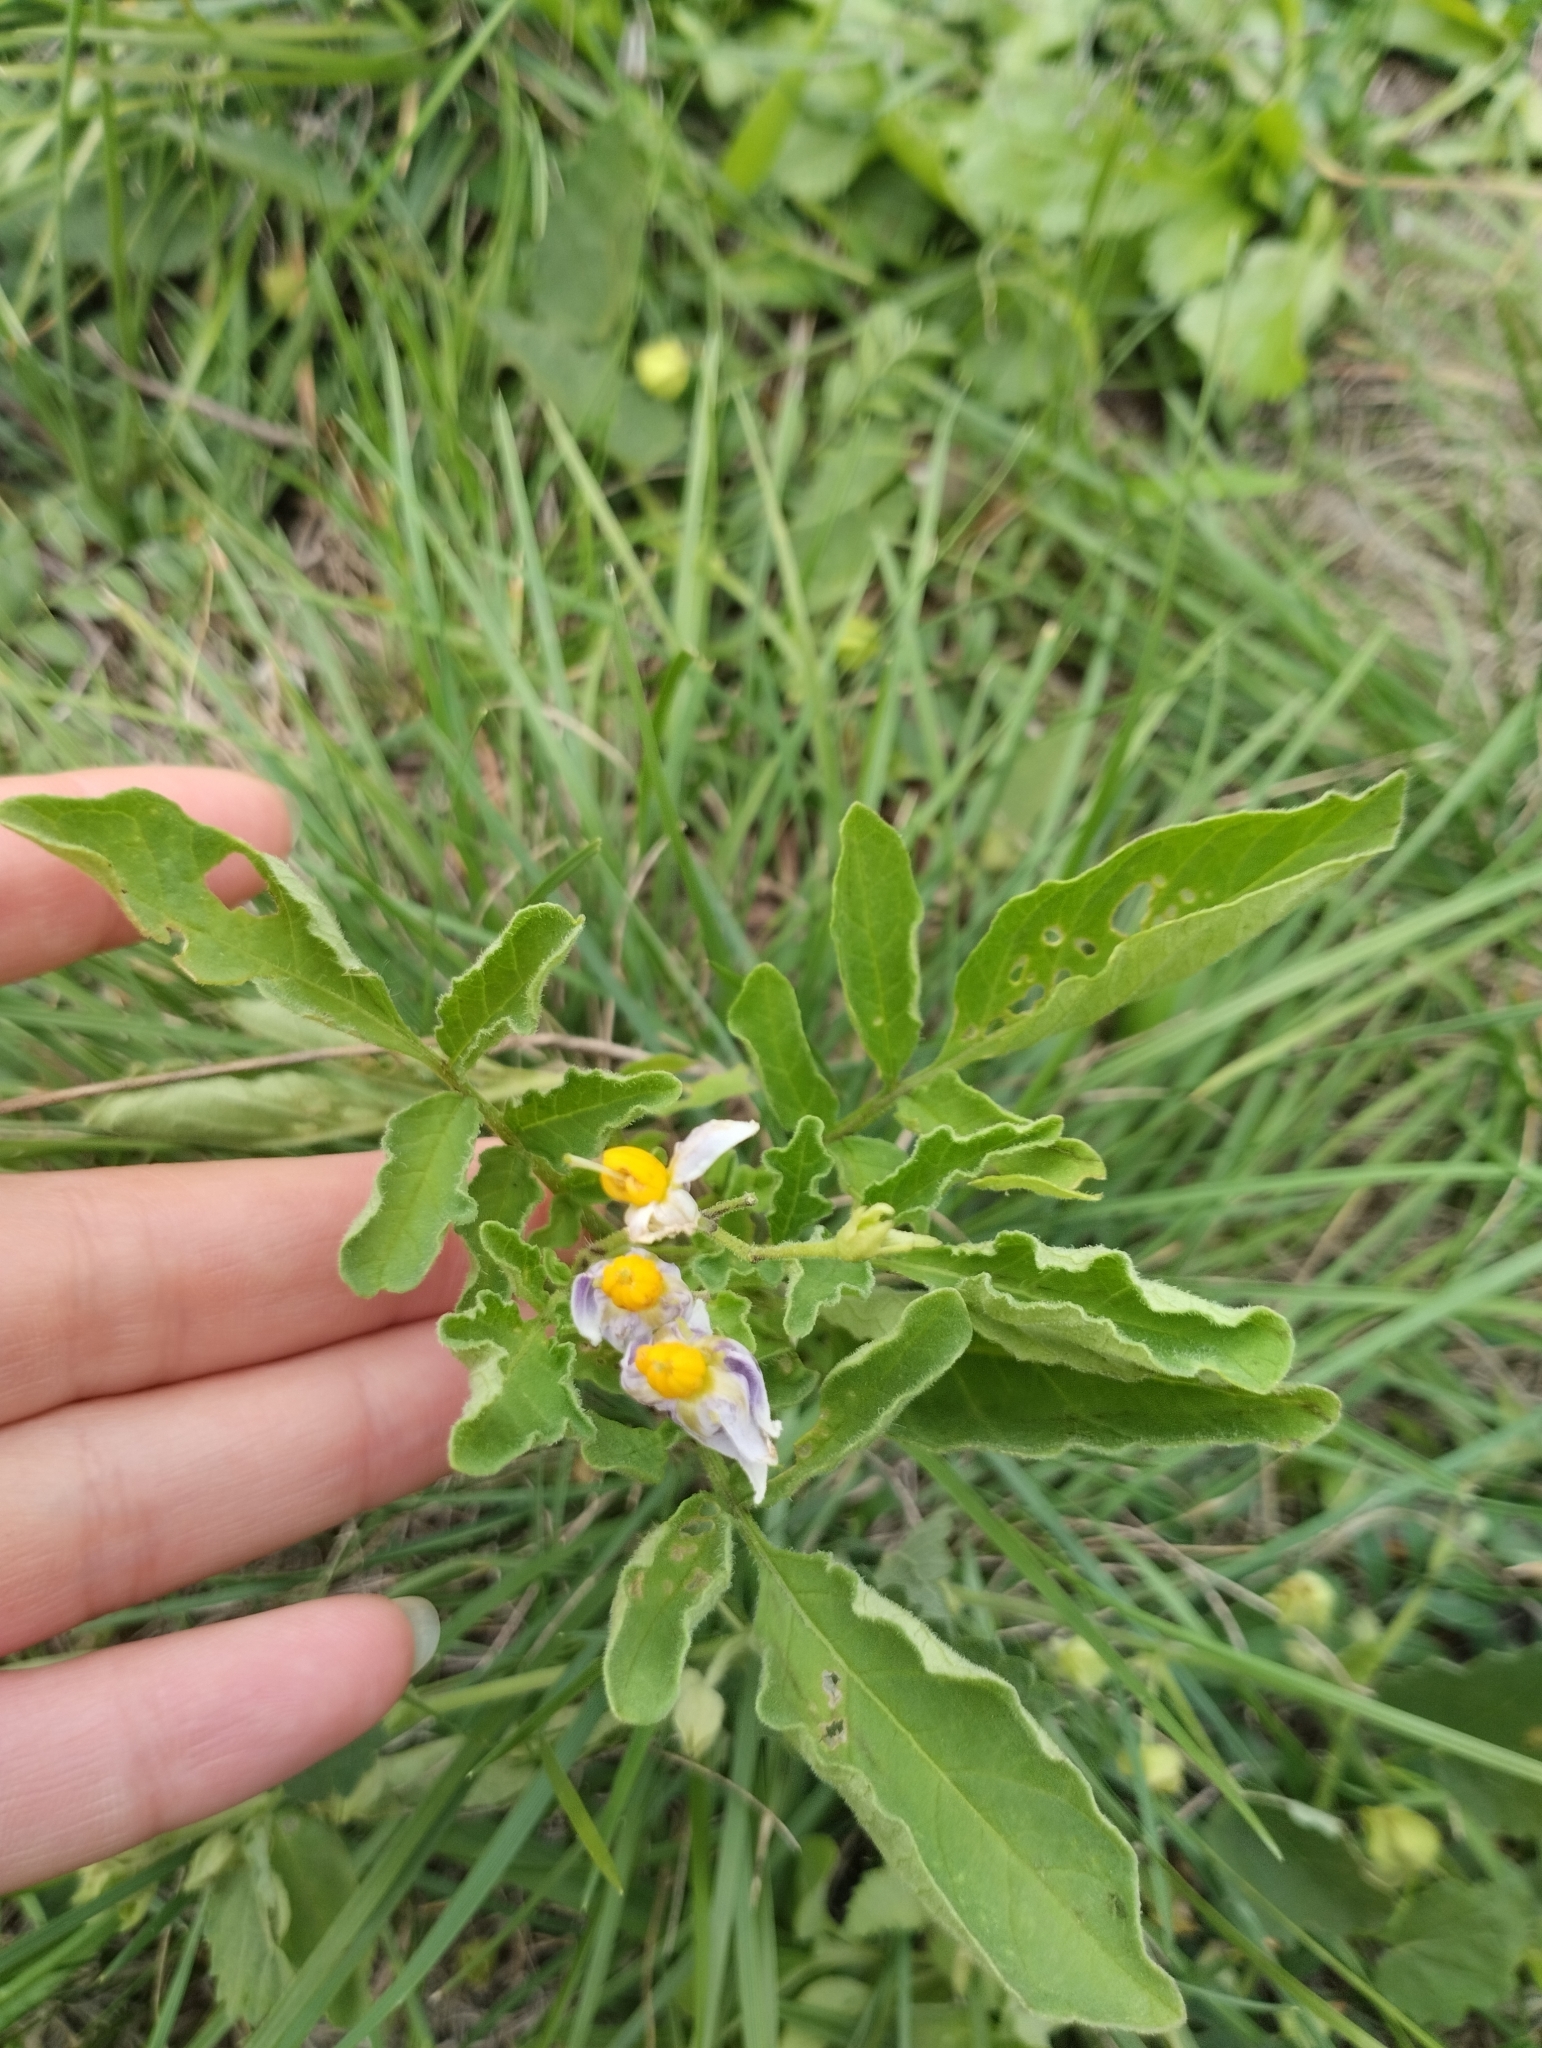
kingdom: Plantae
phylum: Tracheophyta
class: Magnoliopsida
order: Solanales
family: Solanaceae
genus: Solanum
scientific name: Solanum commersonii
